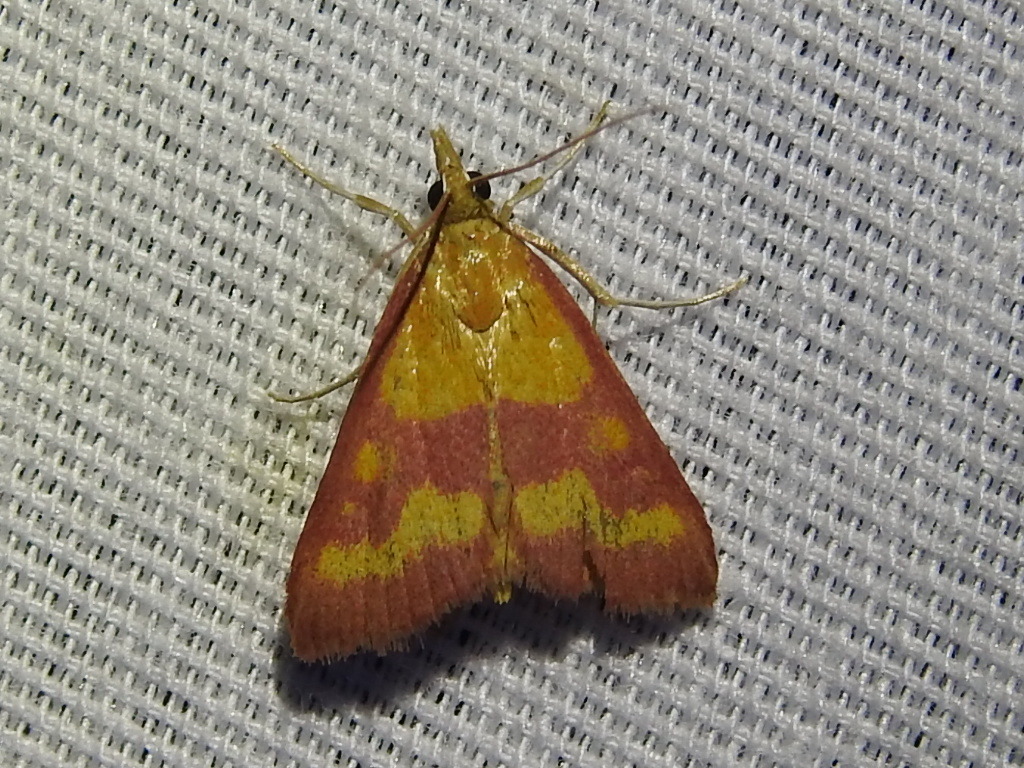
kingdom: Animalia
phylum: Arthropoda
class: Insecta
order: Lepidoptera
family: Crambidae
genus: Pyrausta
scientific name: Pyrausta laticlavia
